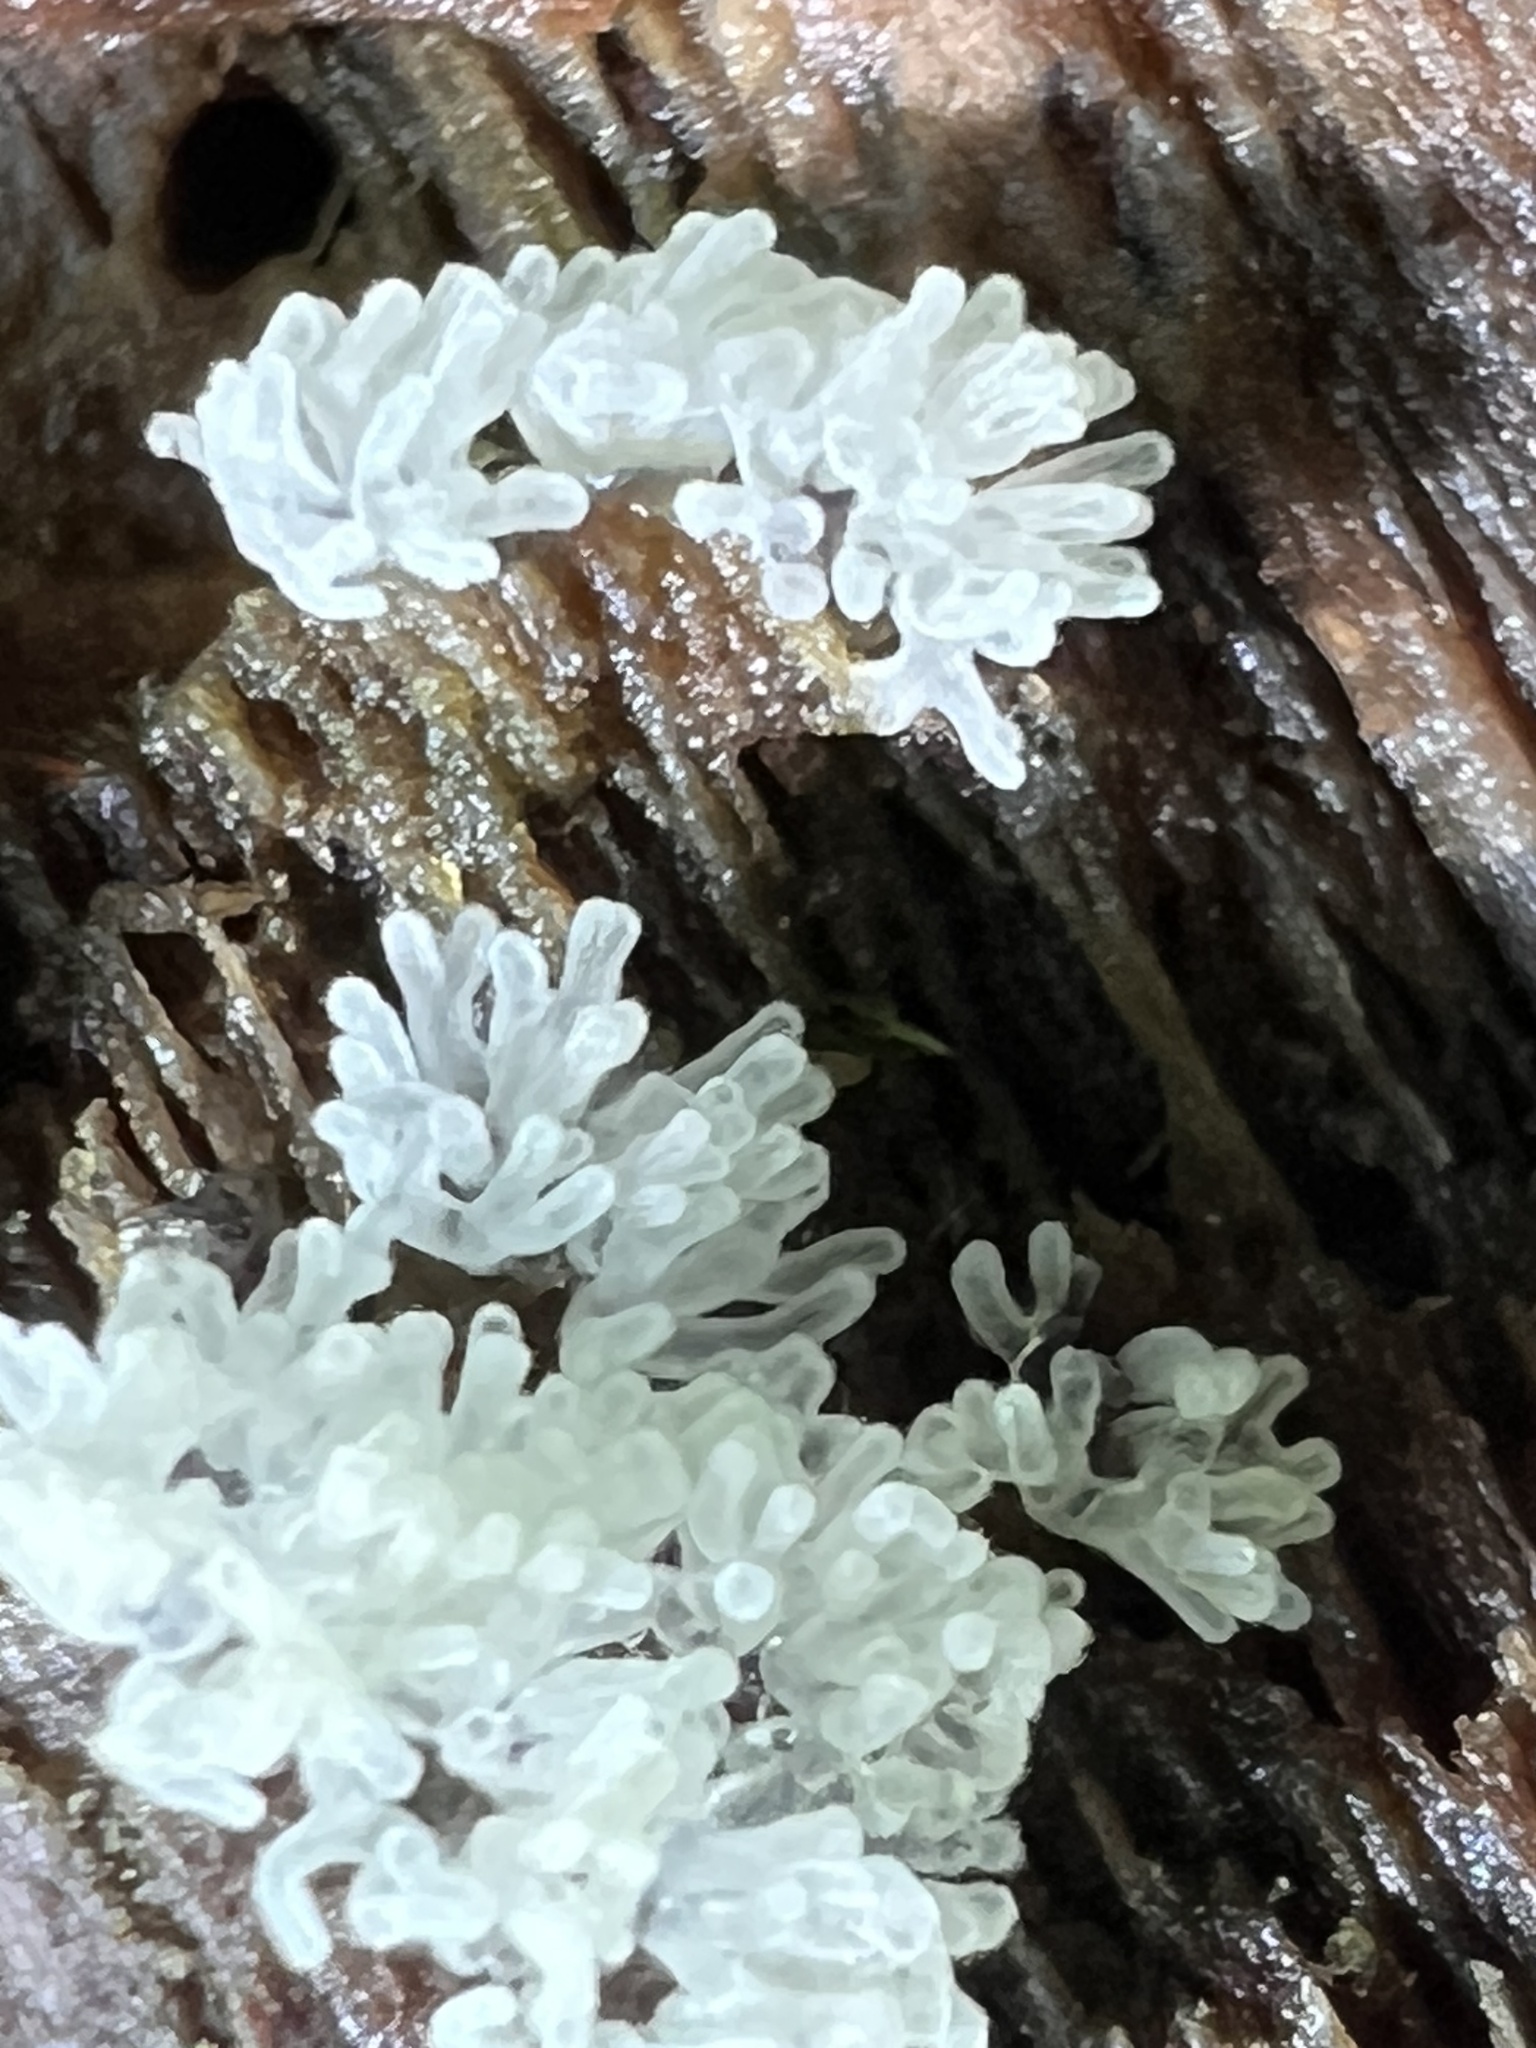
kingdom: Protozoa
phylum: Mycetozoa
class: Protosteliomycetes
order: Ceratiomyxales
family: Ceratiomyxaceae
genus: Ceratiomyxa
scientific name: Ceratiomyxa fruticulosa
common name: Honeycomb coral slime mold
